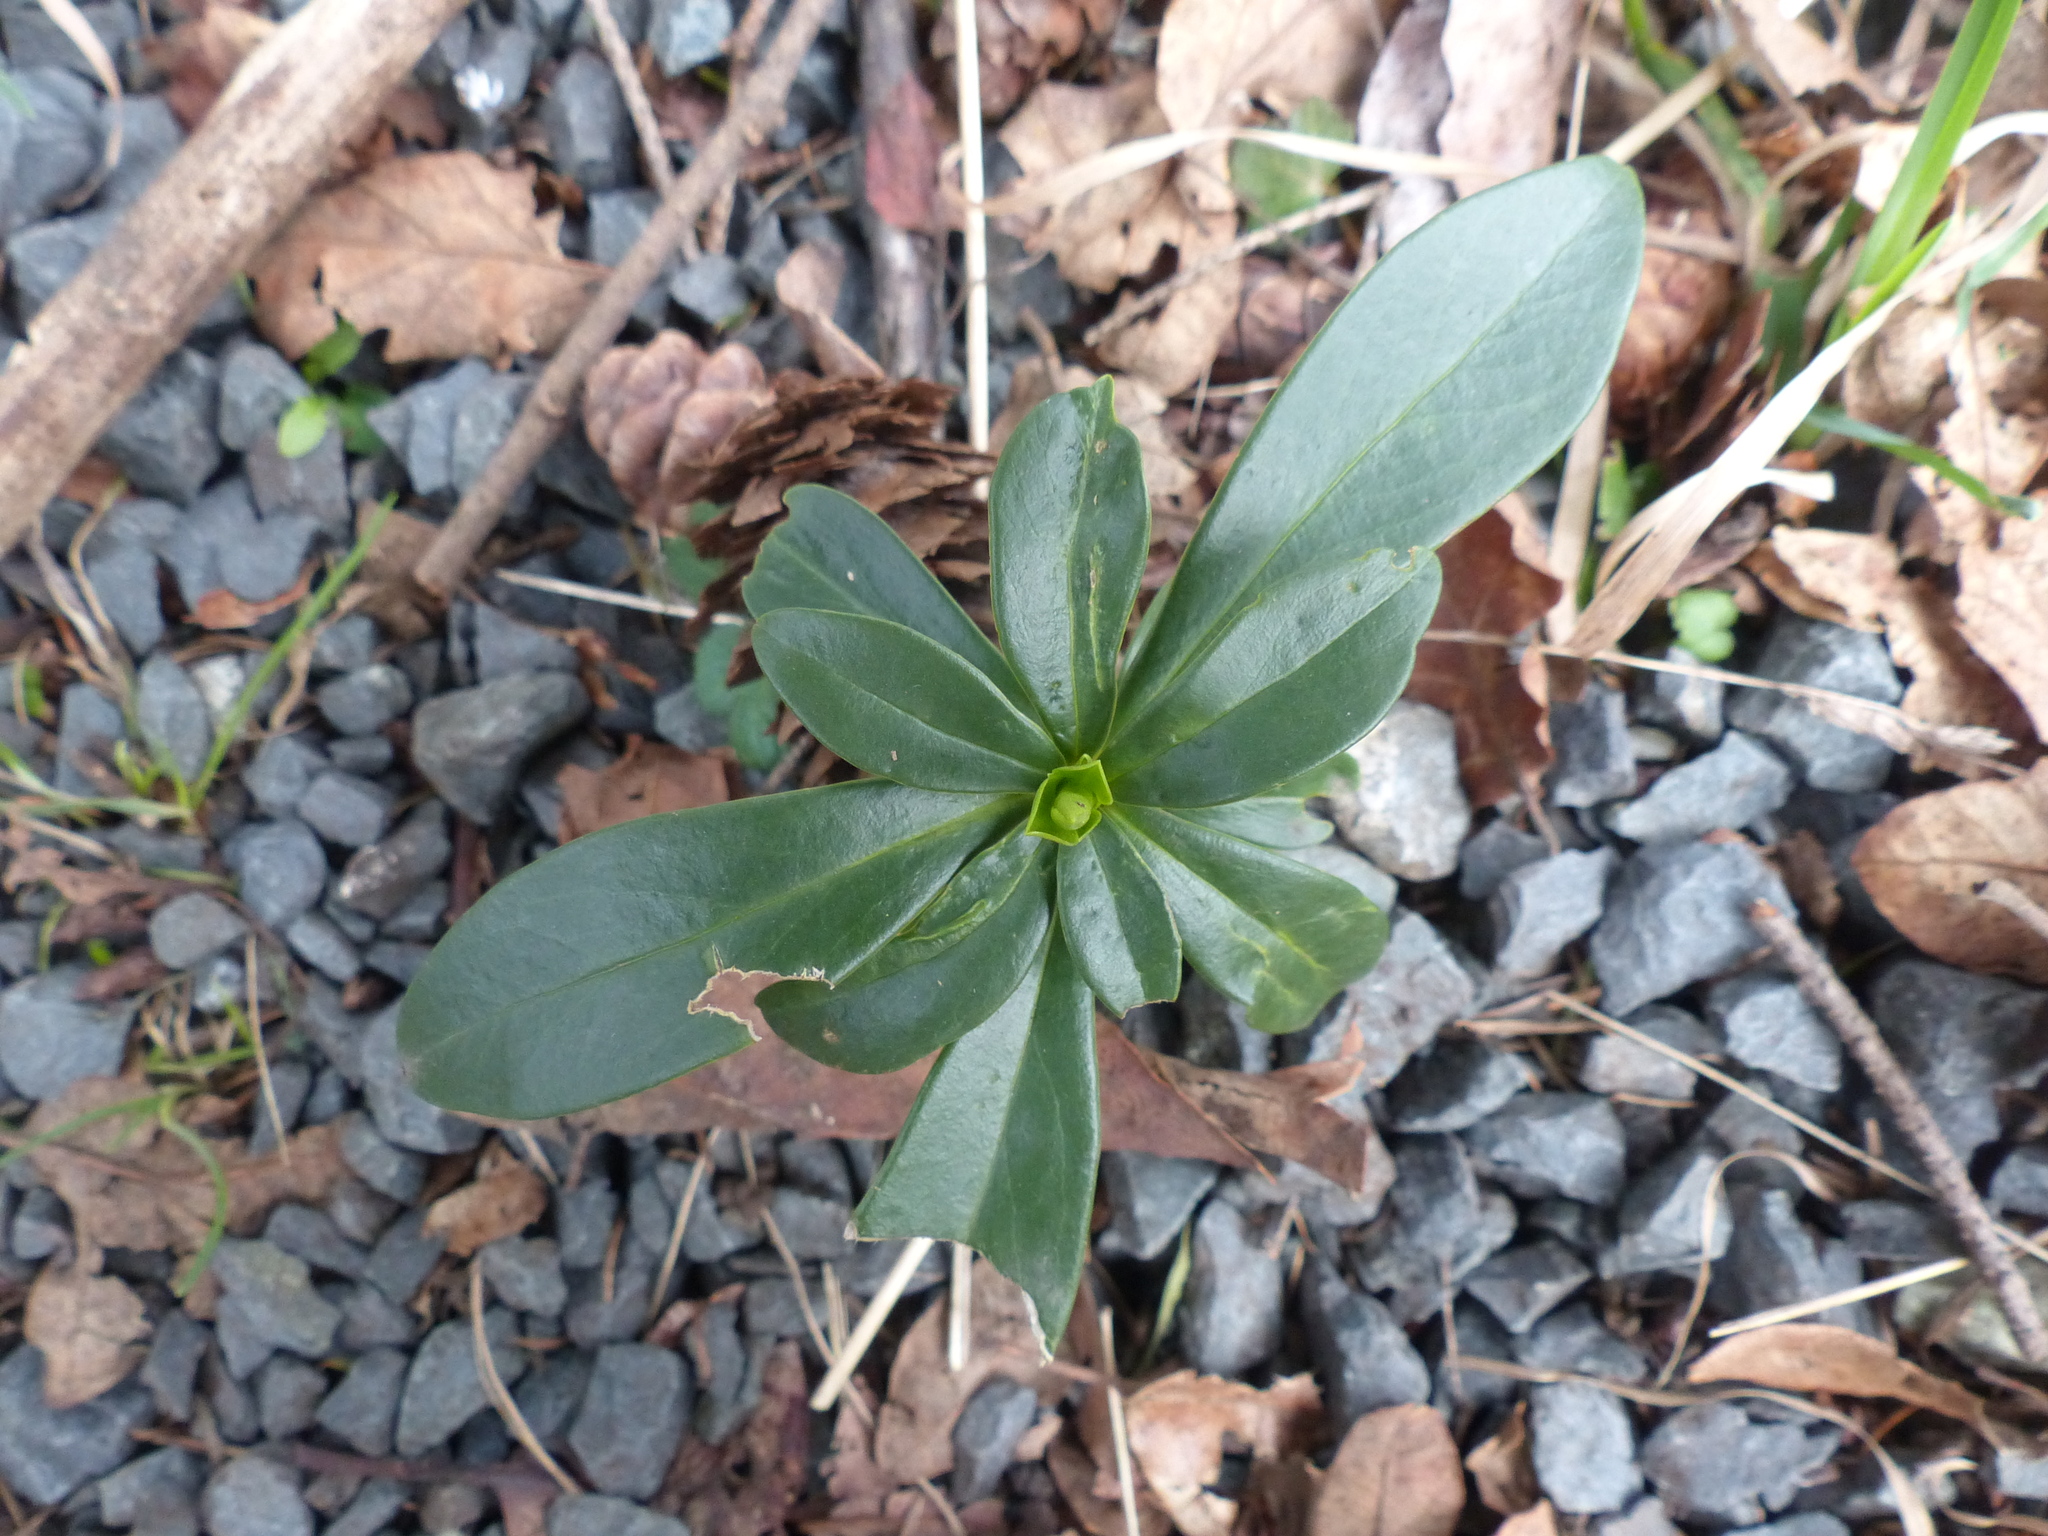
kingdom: Plantae
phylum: Tracheophyta
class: Magnoliopsida
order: Malvales
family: Thymelaeaceae
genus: Daphne
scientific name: Daphne laureola
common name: Spurge-laurel
